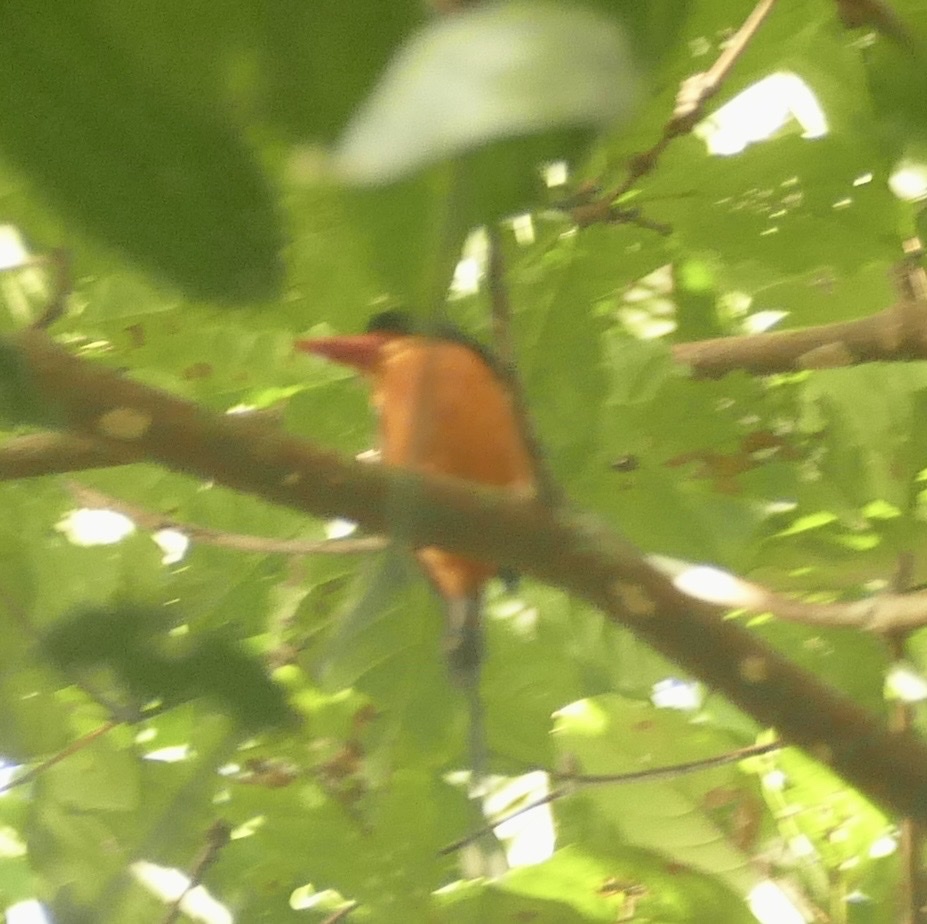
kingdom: Animalia
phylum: Chordata
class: Aves
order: Coraciiformes
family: Alcedinidae
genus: Tanysiptera
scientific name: Tanysiptera nympha
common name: Red-breasted paradise-kingfisher
